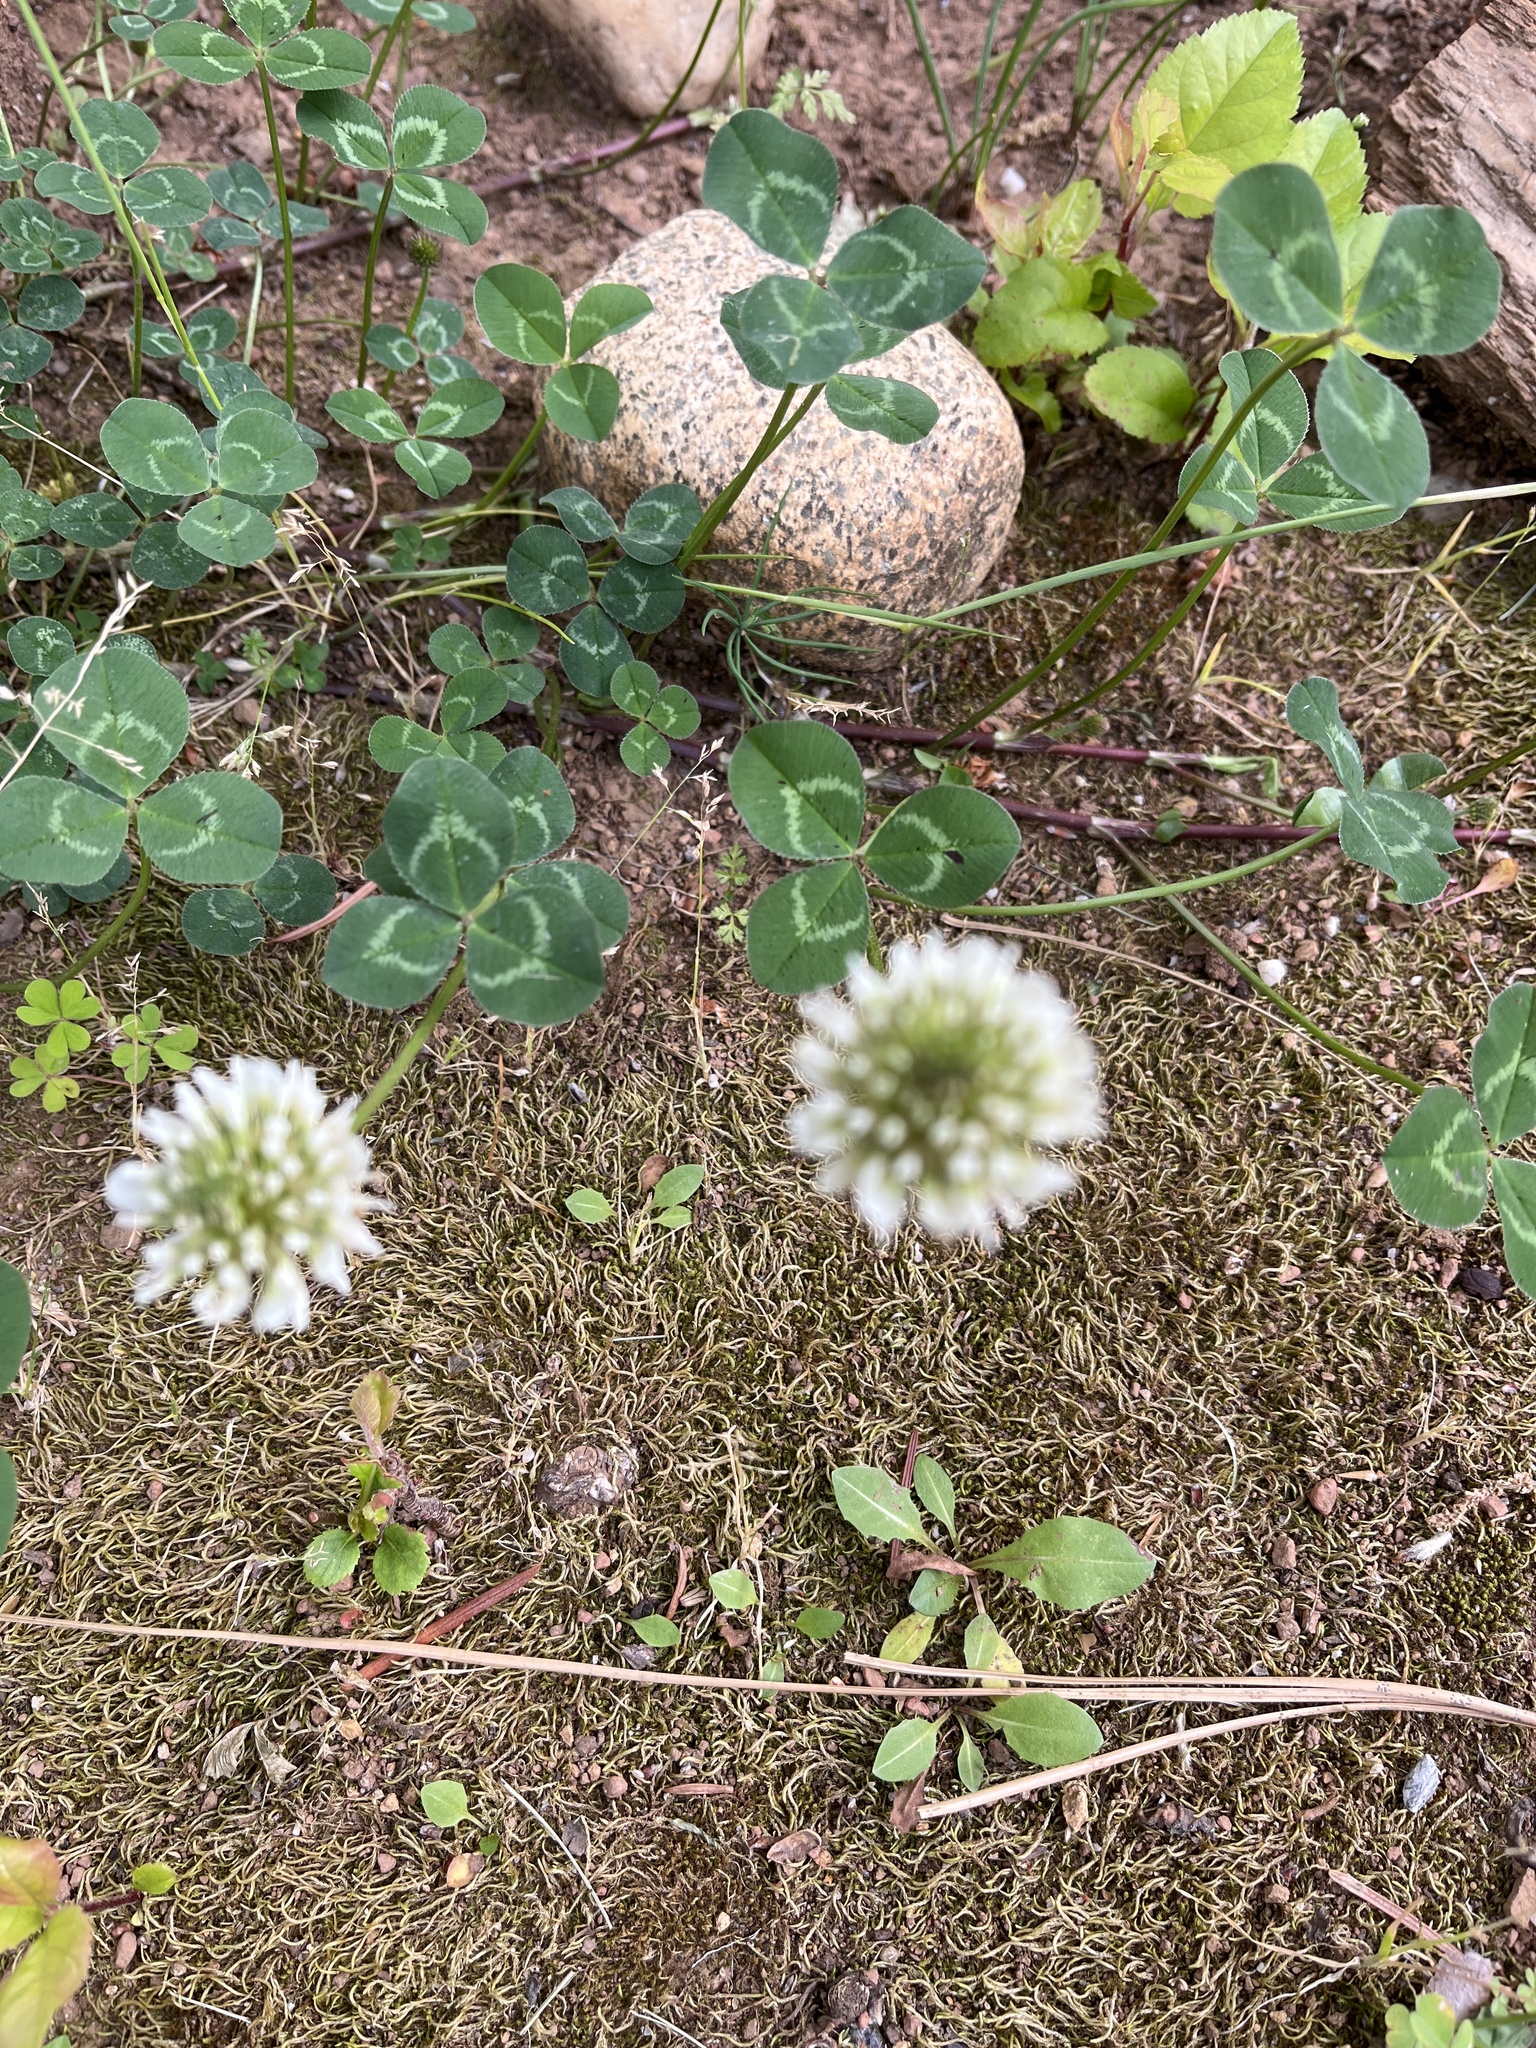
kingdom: Plantae
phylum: Tracheophyta
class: Magnoliopsida
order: Fabales
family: Fabaceae
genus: Trifolium
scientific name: Trifolium repens
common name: White clover
